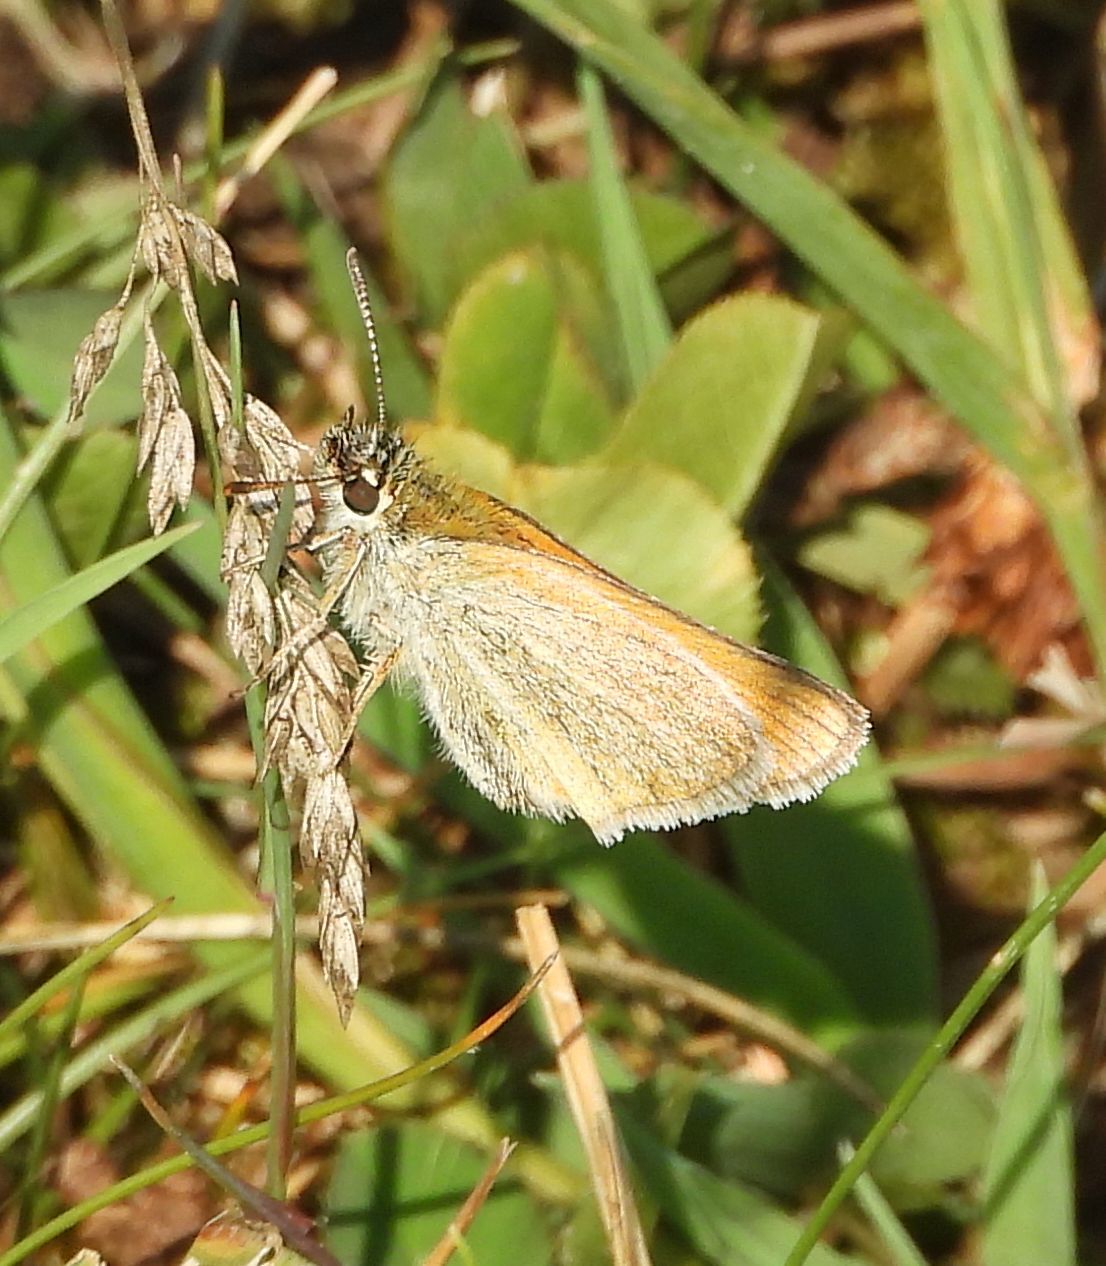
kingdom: Animalia
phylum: Arthropoda
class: Insecta
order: Lepidoptera
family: Hesperiidae
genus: Thymelicus
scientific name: Thymelicus lineola
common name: Essex skipper
